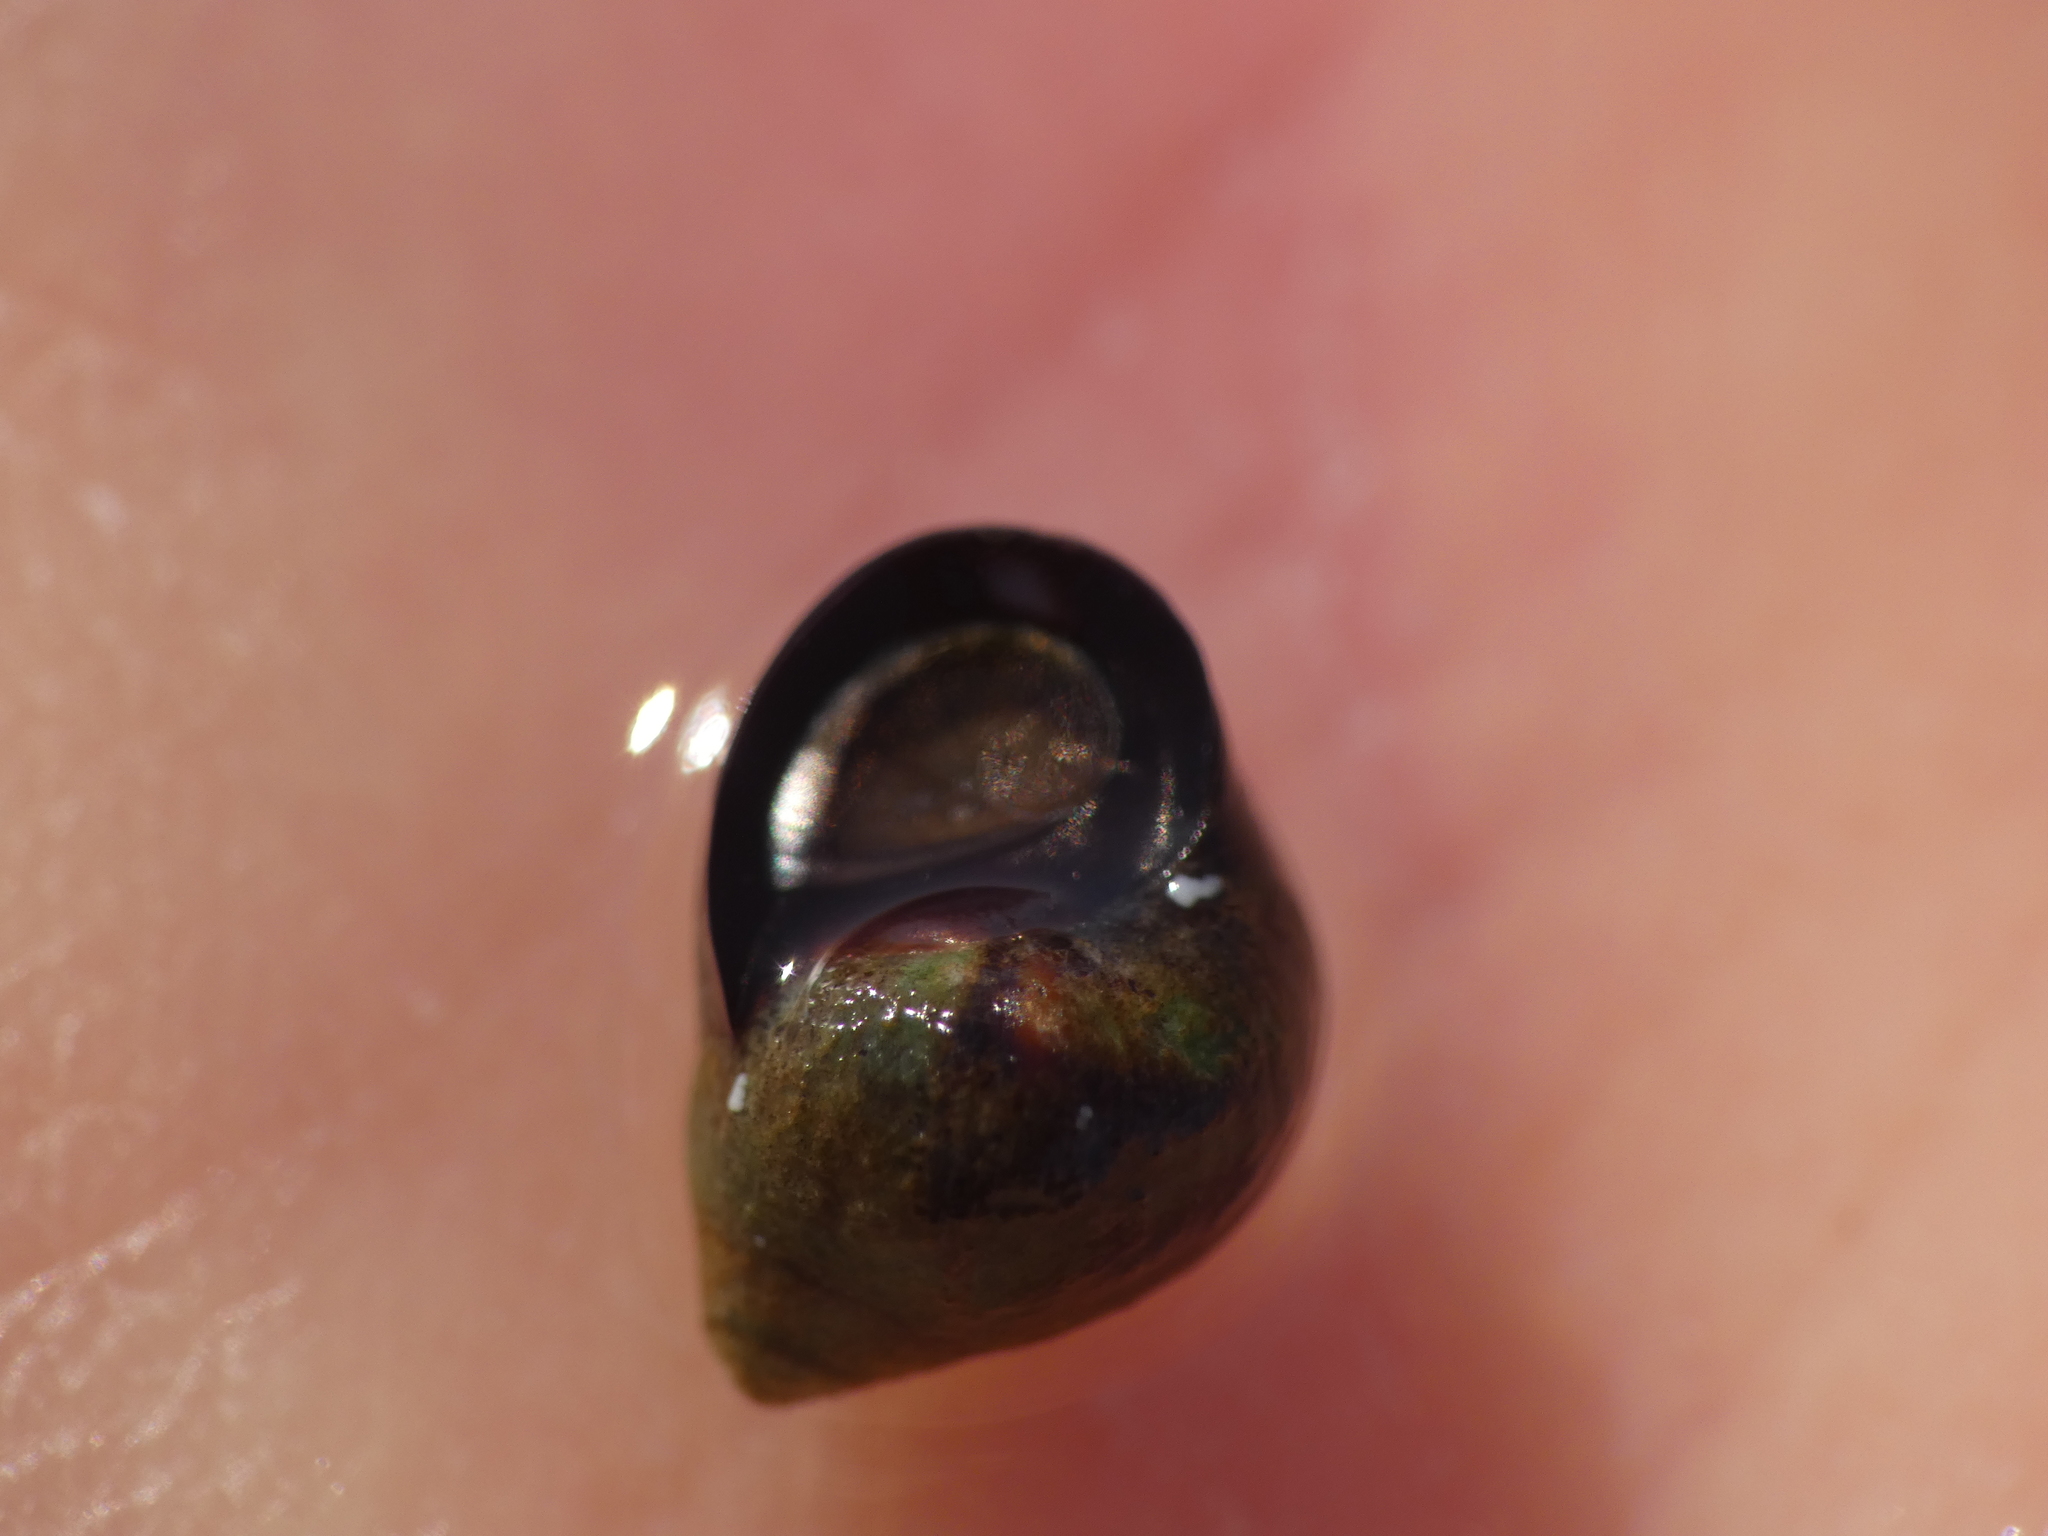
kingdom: Animalia
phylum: Mollusca
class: Gastropoda
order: Littorinimorpha
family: Littorinidae
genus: Melarhaphe
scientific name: Melarhaphe neritoides
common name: Small periwinkle
